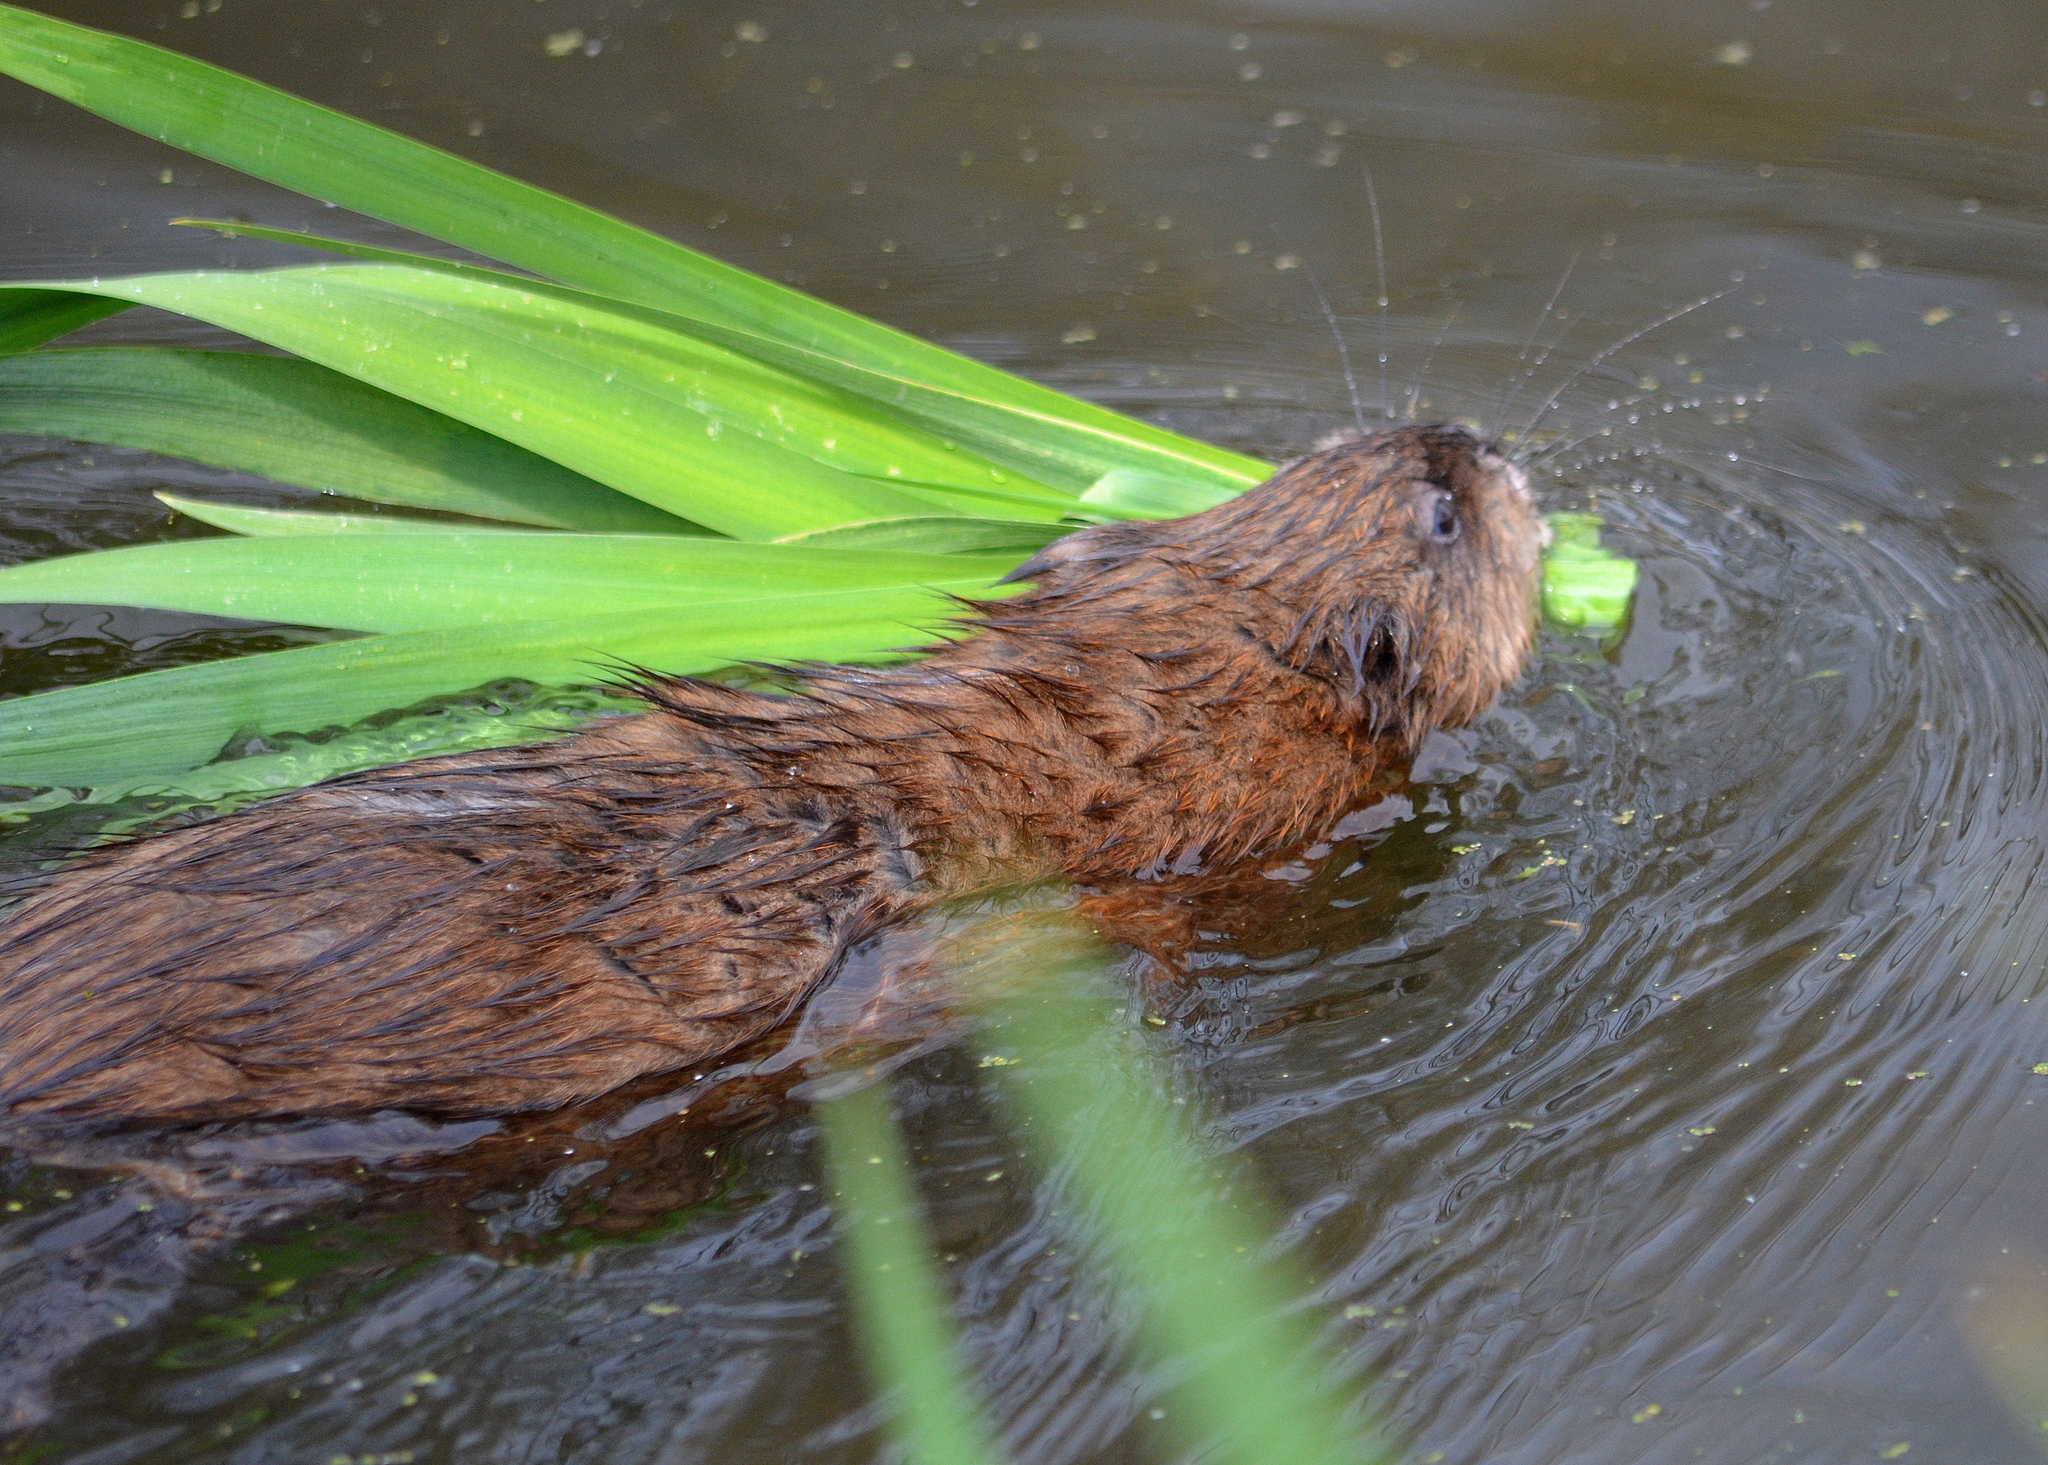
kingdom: Animalia
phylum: Chordata
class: Mammalia
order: Rodentia
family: Cricetidae
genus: Ondatra
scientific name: Ondatra zibethicus
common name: Muskrat
